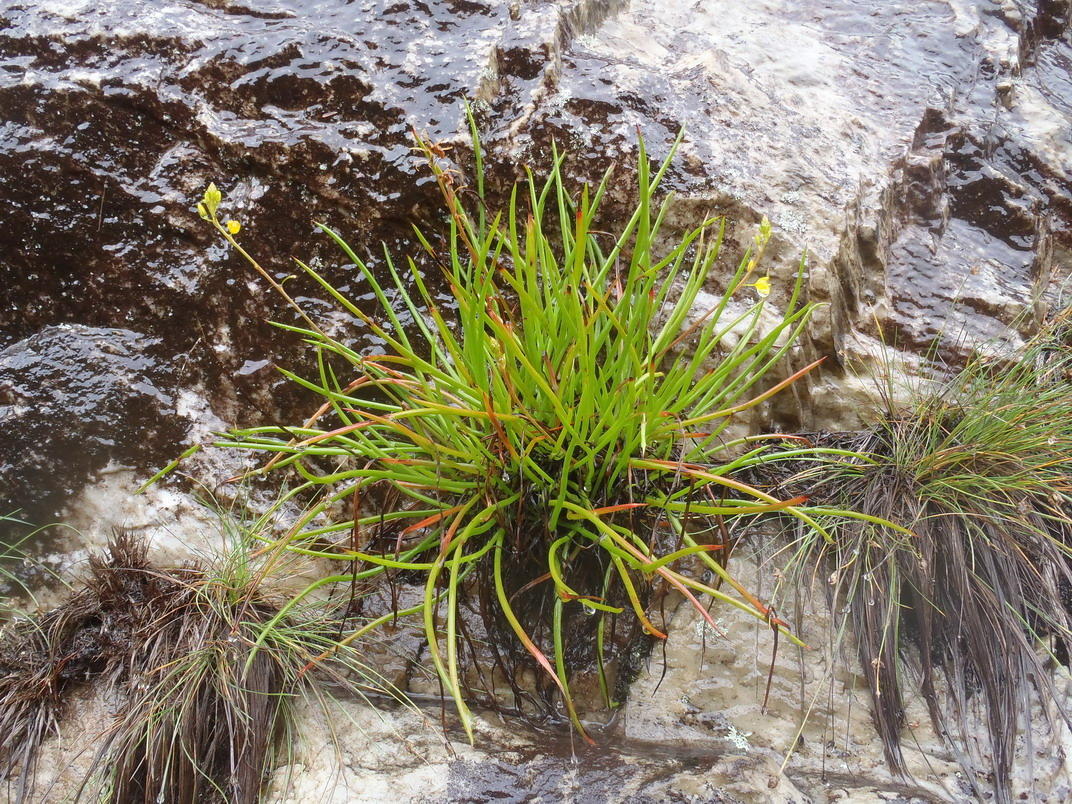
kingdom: Plantae
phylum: Tracheophyta
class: Liliopsida
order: Asparagales
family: Asphodelaceae
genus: Bulbine
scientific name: Bulbine audreyae
